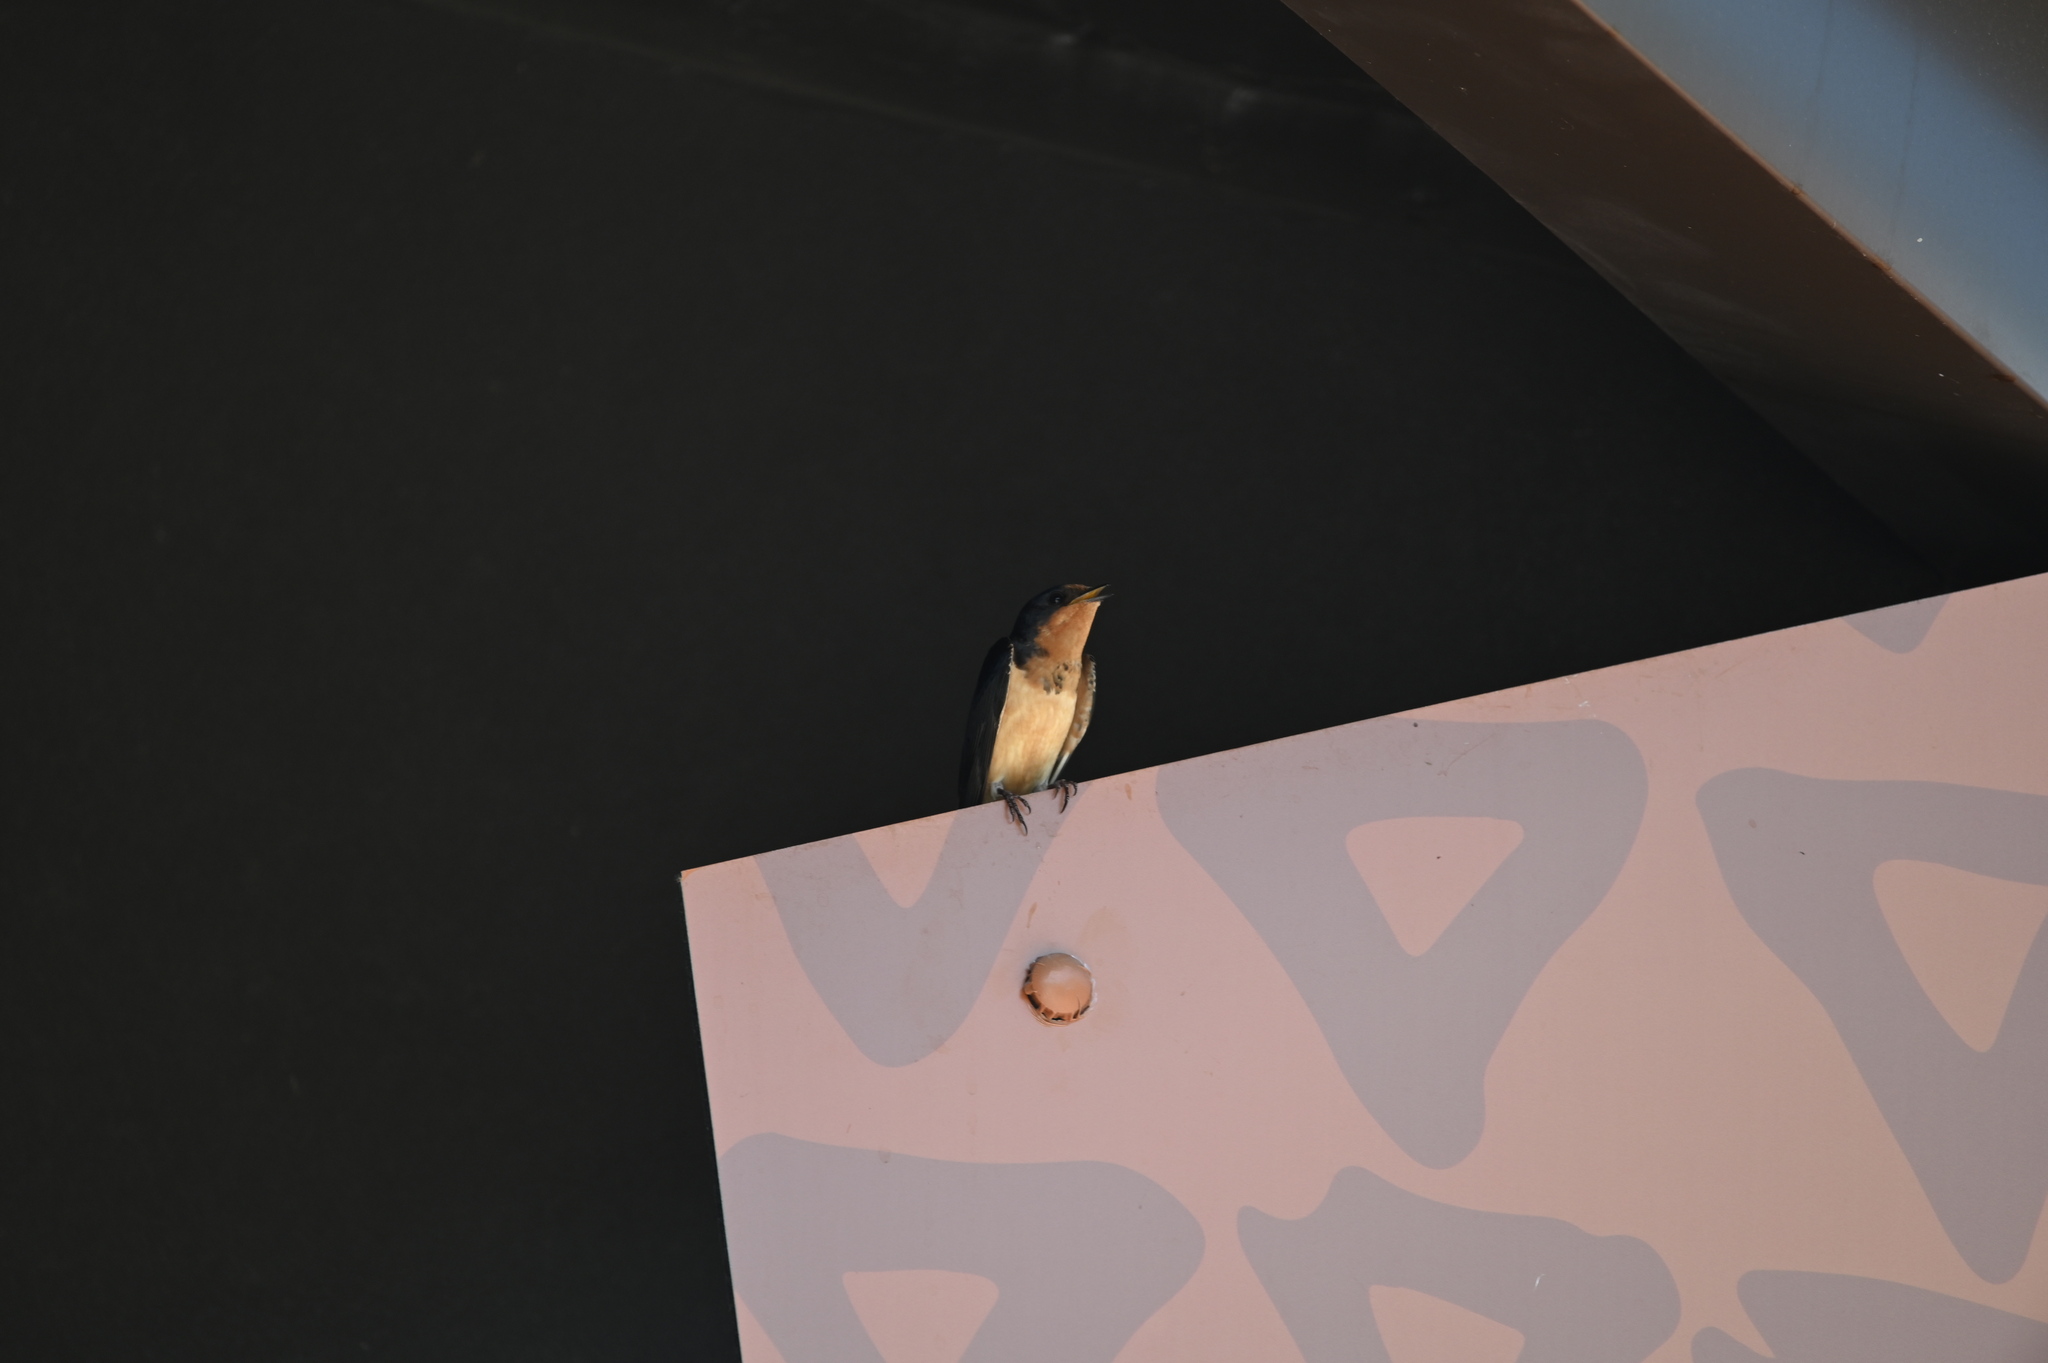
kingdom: Animalia
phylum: Chordata
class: Aves
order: Passeriformes
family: Hirundinidae
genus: Hirundo
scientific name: Hirundo rustica
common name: Barn swallow
